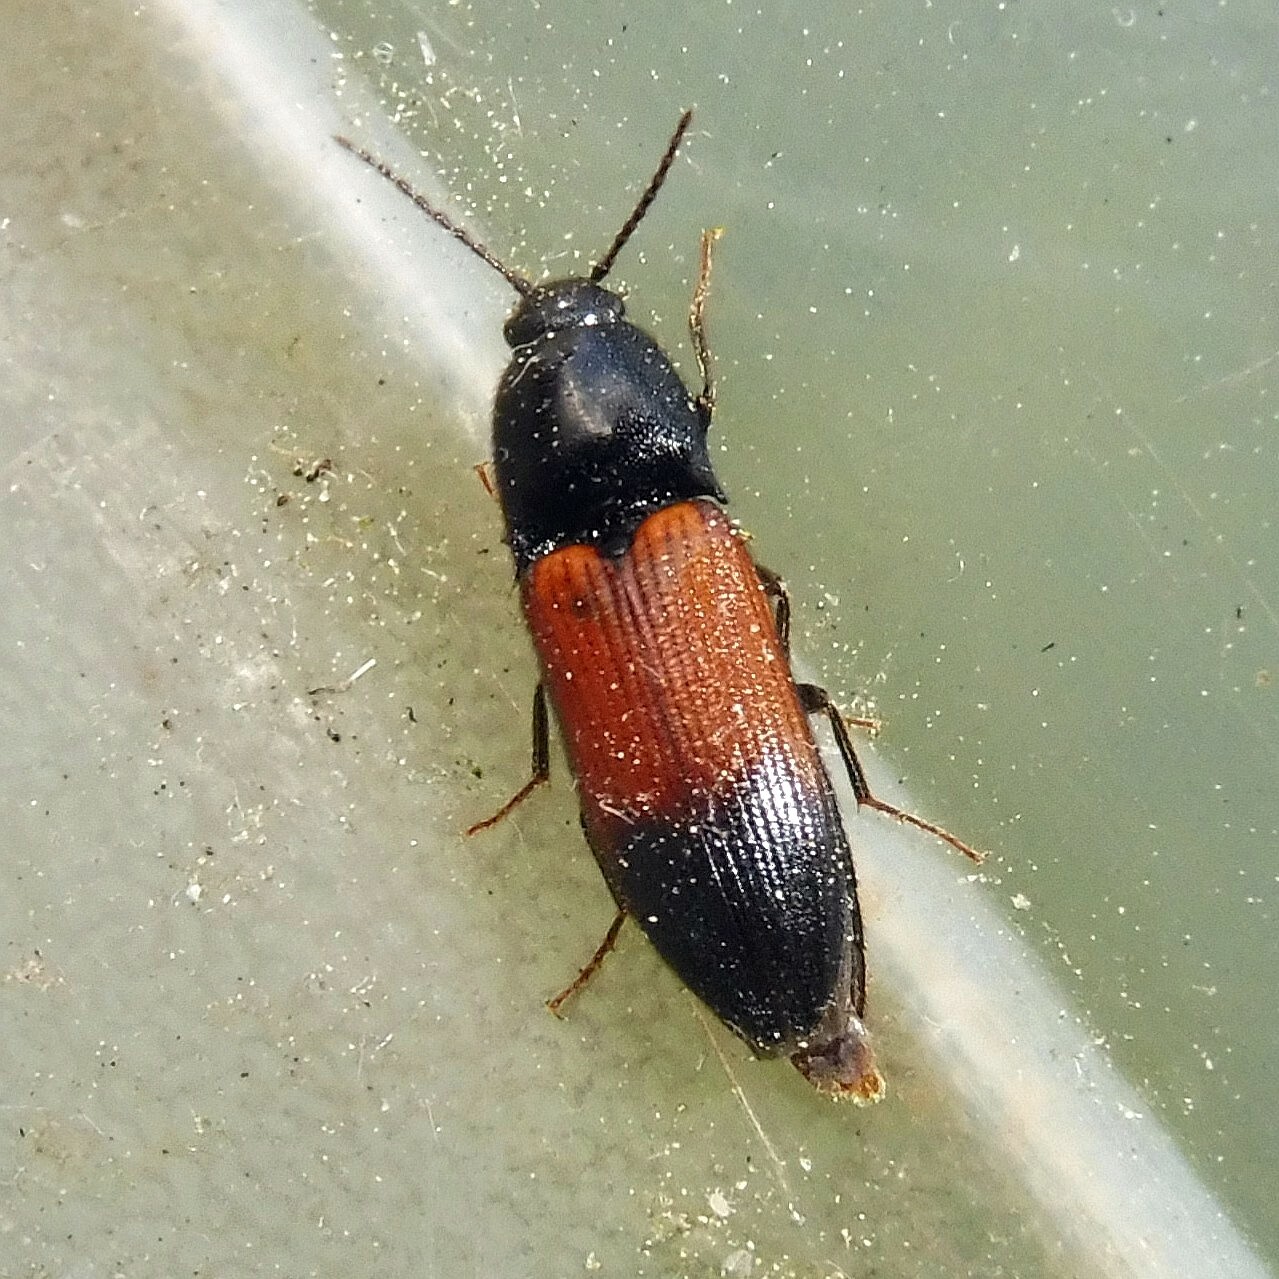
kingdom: Animalia
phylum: Arthropoda
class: Insecta
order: Coleoptera
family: Elateridae
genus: Ampedus
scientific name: Ampedus balteatus
